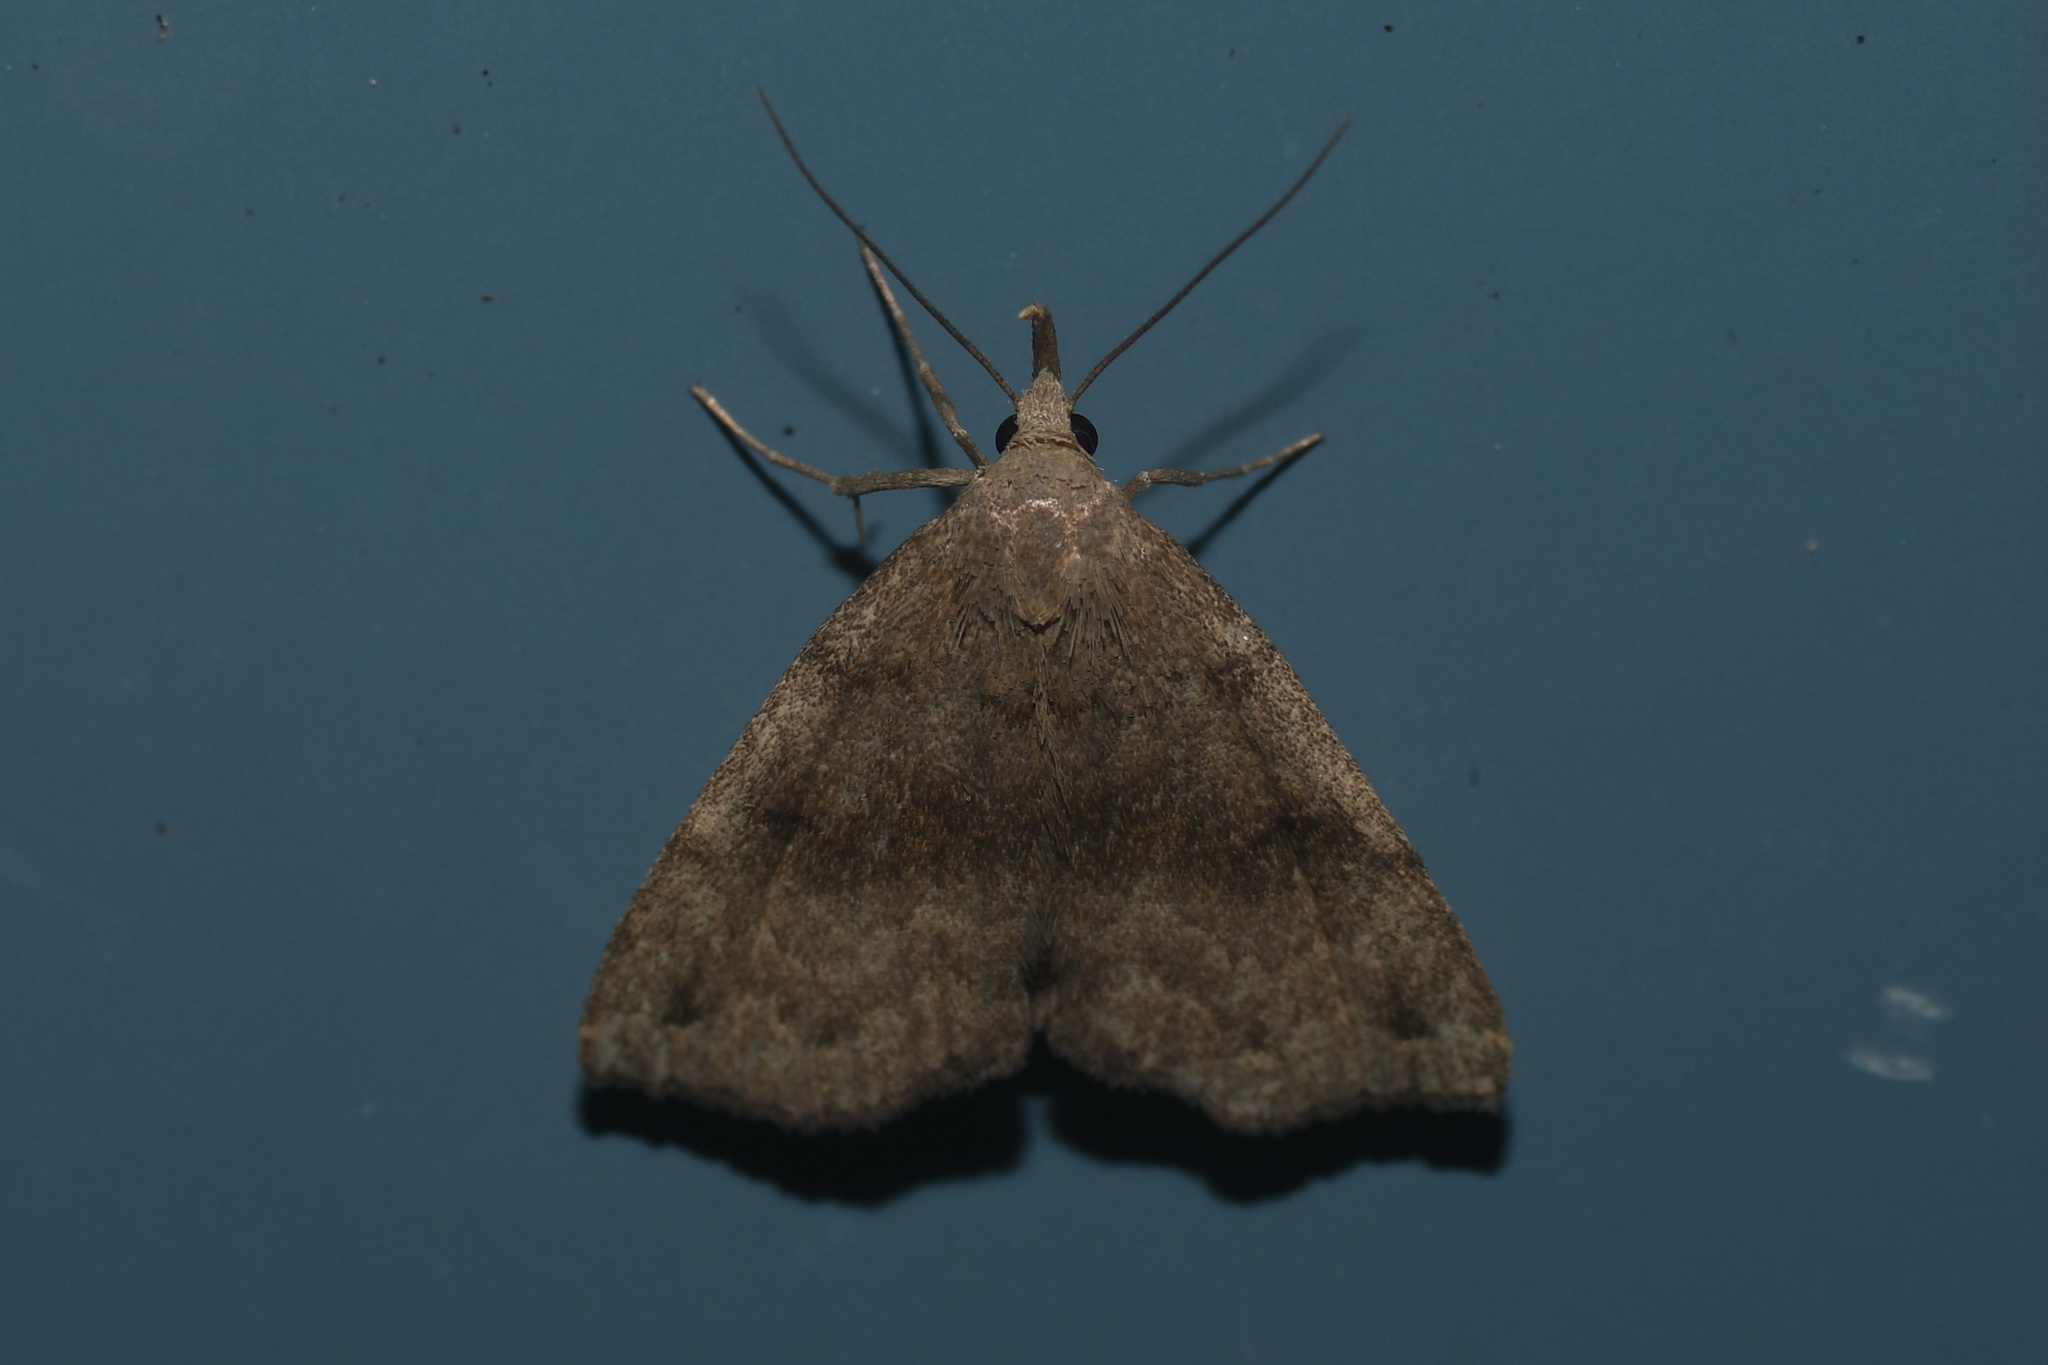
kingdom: Animalia
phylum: Arthropoda
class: Insecta
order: Lepidoptera
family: Erebidae
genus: Phalaenostola
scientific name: Phalaenostola eumelusalis
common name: Dark phalaenostola moth
